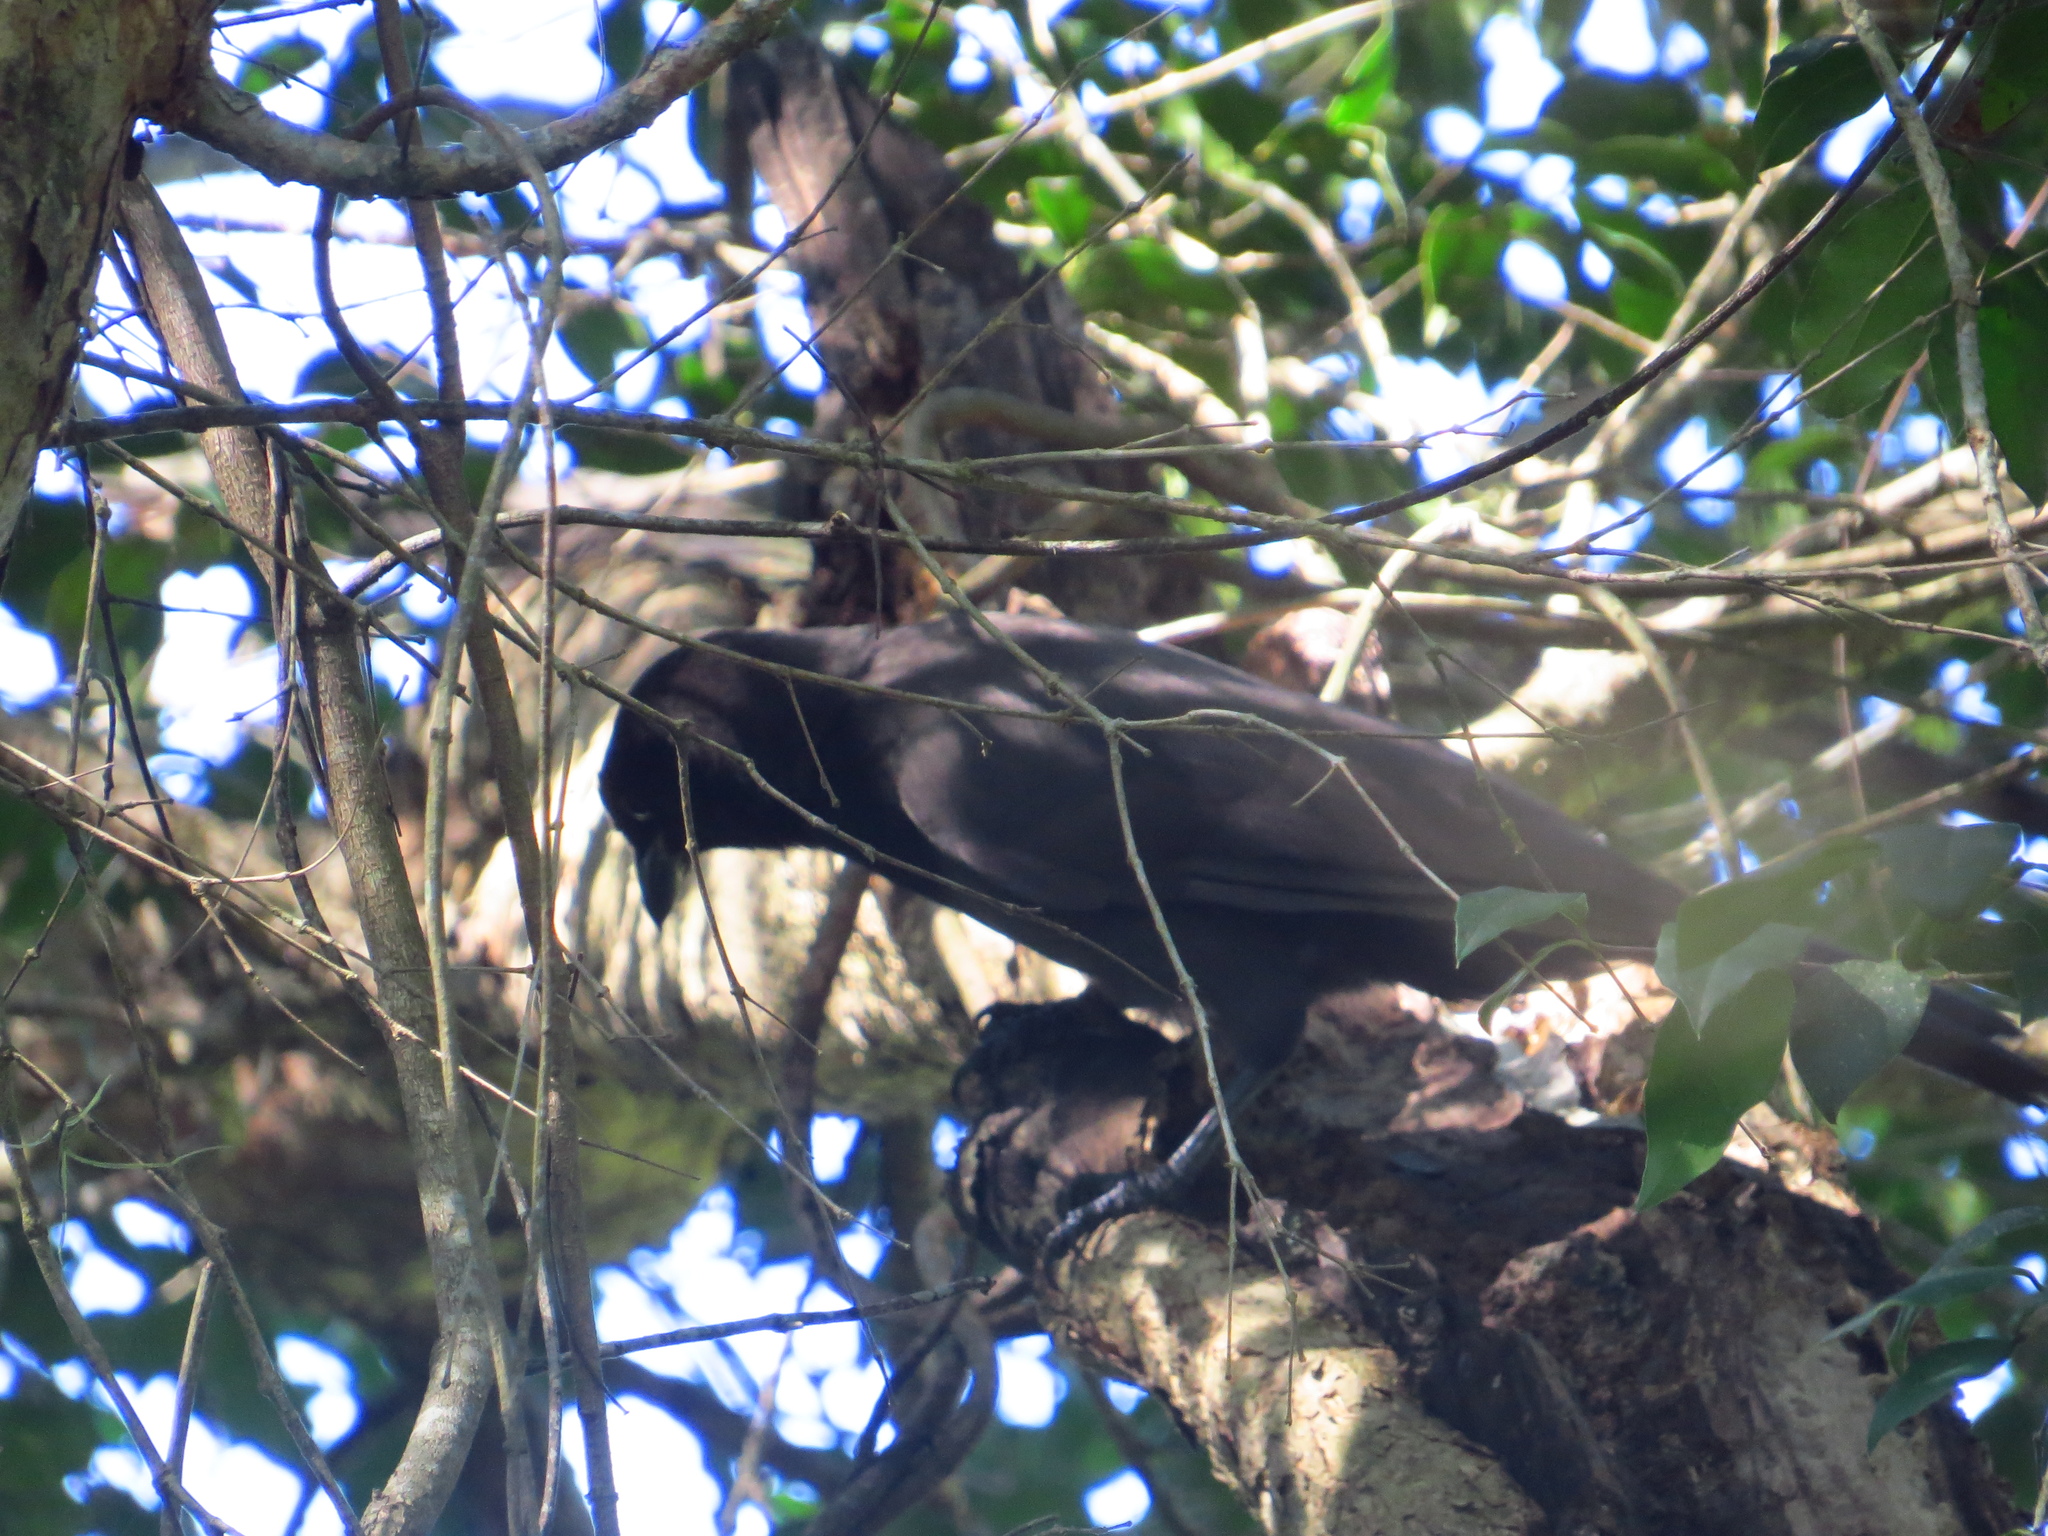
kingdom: Animalia
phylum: Chordata
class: Aves
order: Passeriformes
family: Corvidae
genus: Cyanocorax
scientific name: Cyanocorax cyanomelas
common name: Purplish jay
